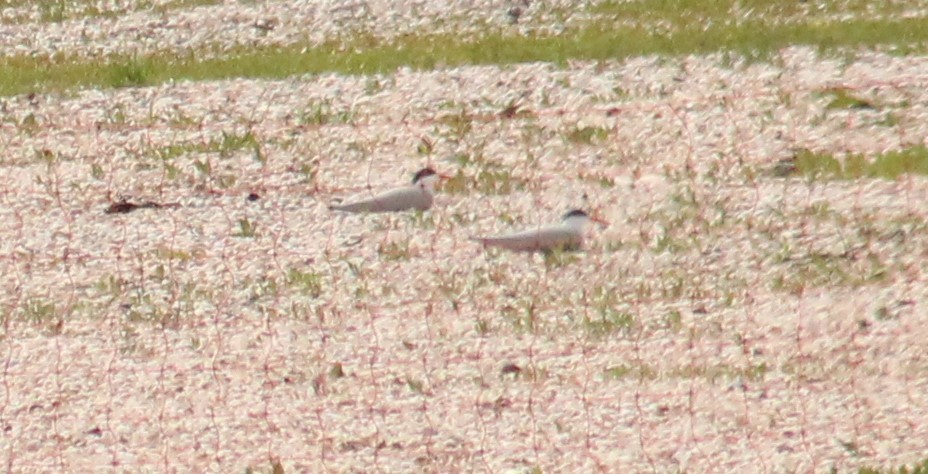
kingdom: Animalia
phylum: Chordata
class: Aves
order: Charadriiformes
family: Laridae
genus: Sterna
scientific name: Sterna hirundo
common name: Common tern
